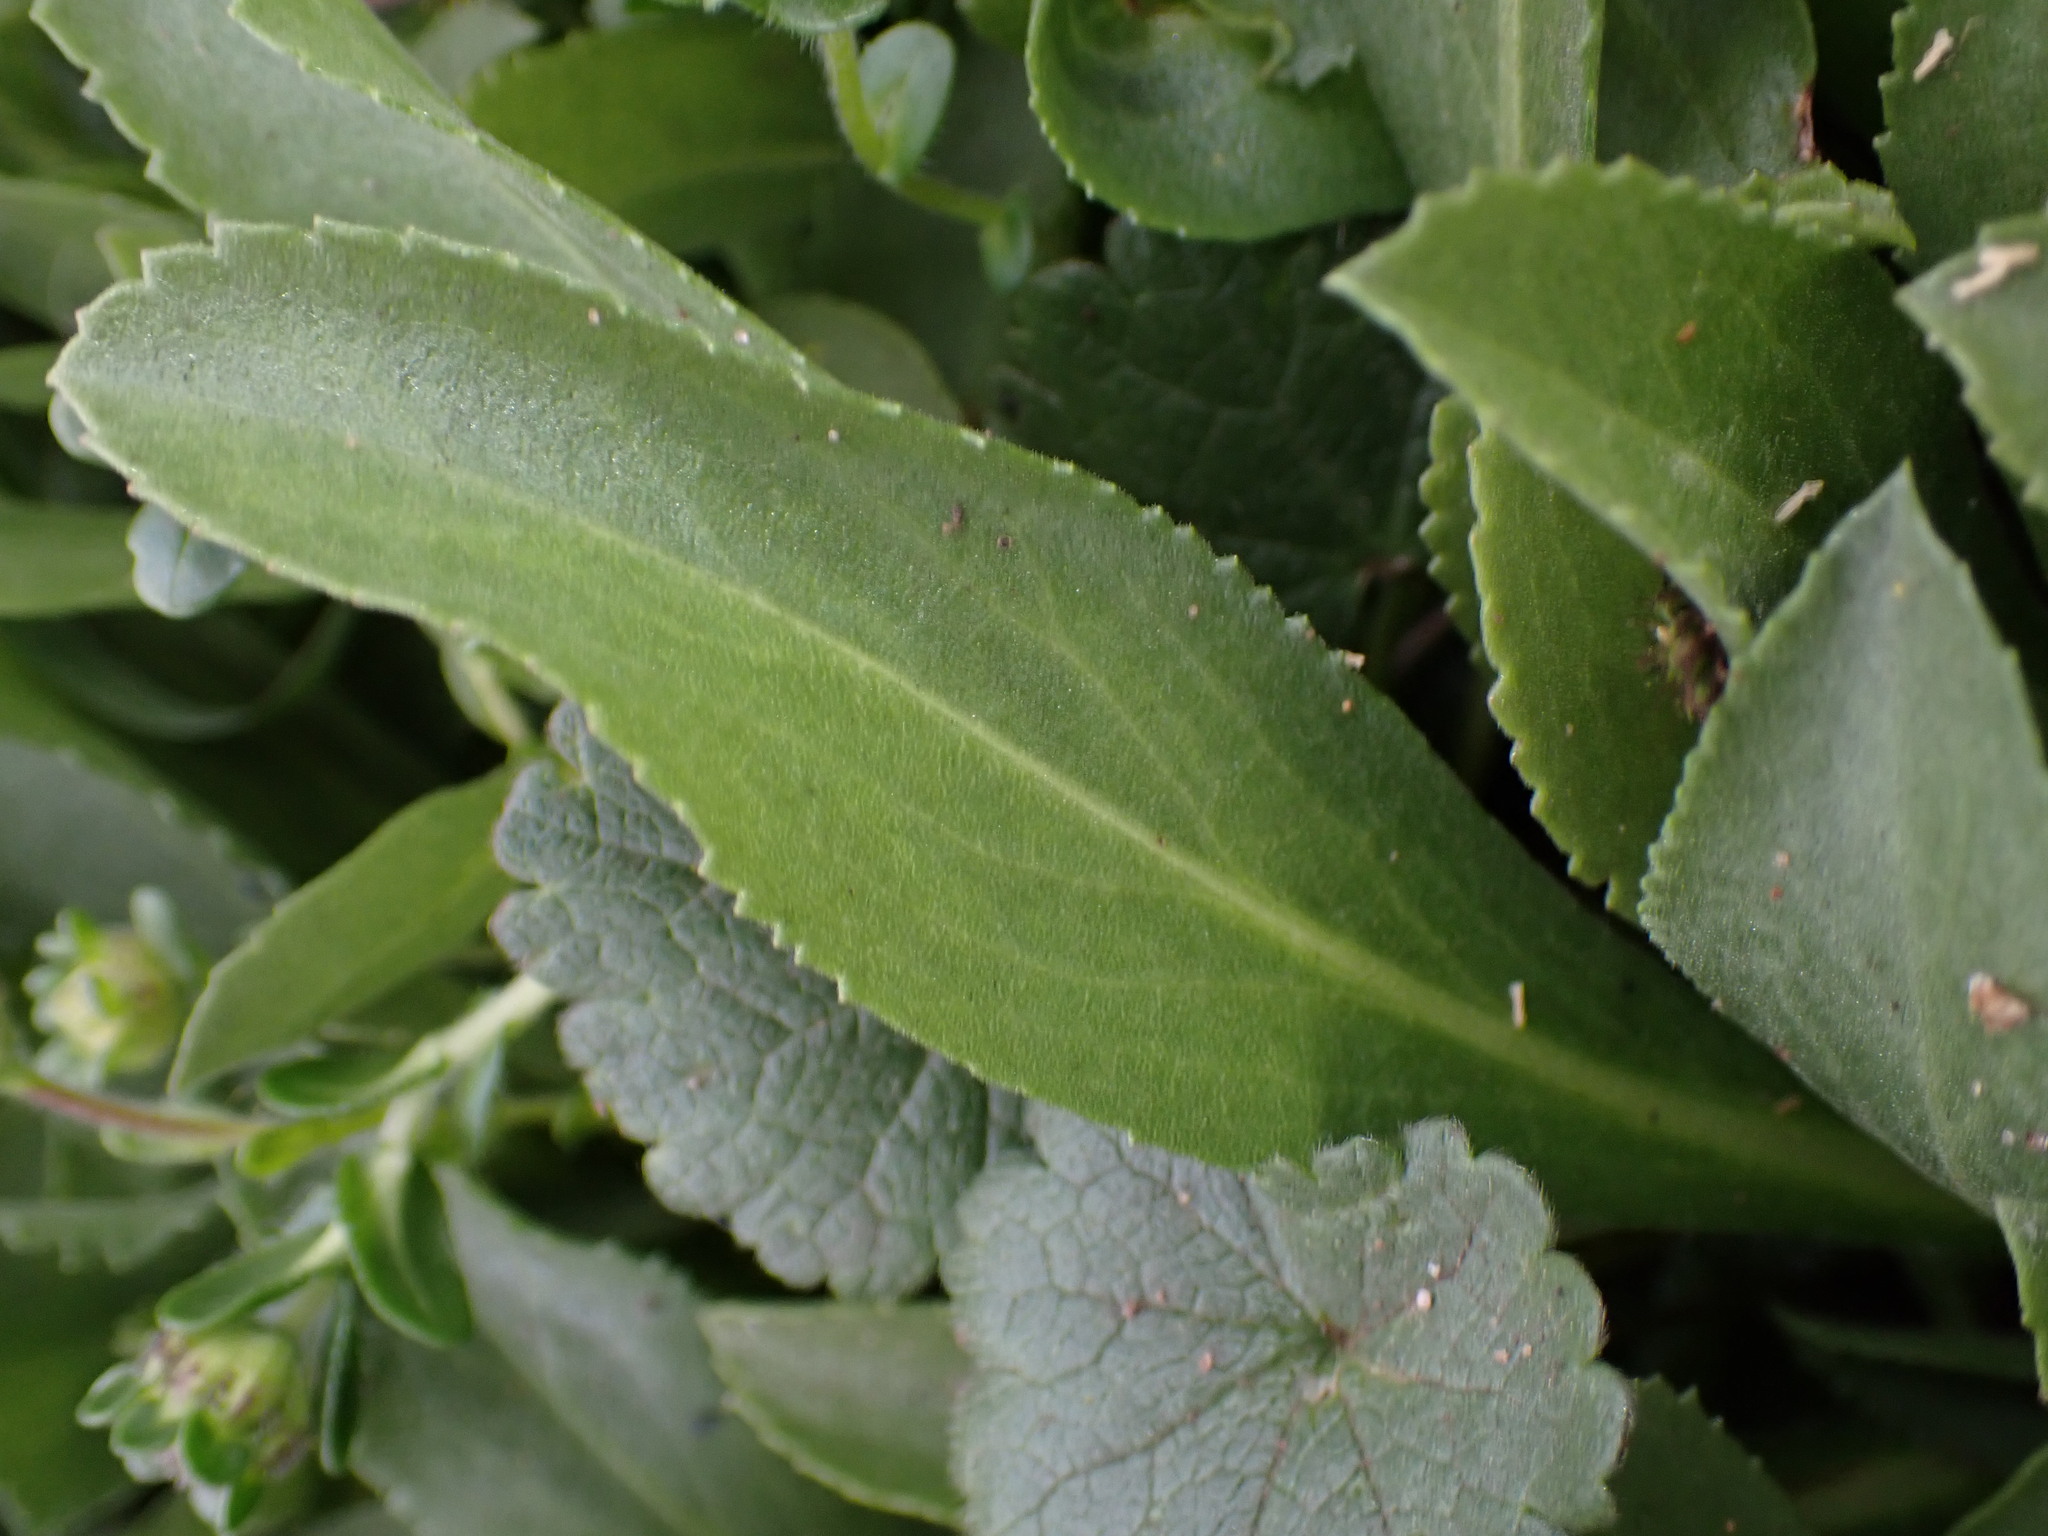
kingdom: Plantae
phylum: Tracheophyta
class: Magnoliopsida
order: Asterales
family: Asteraceae
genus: Layia
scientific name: Layia platyglossa
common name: Tidy-tips
